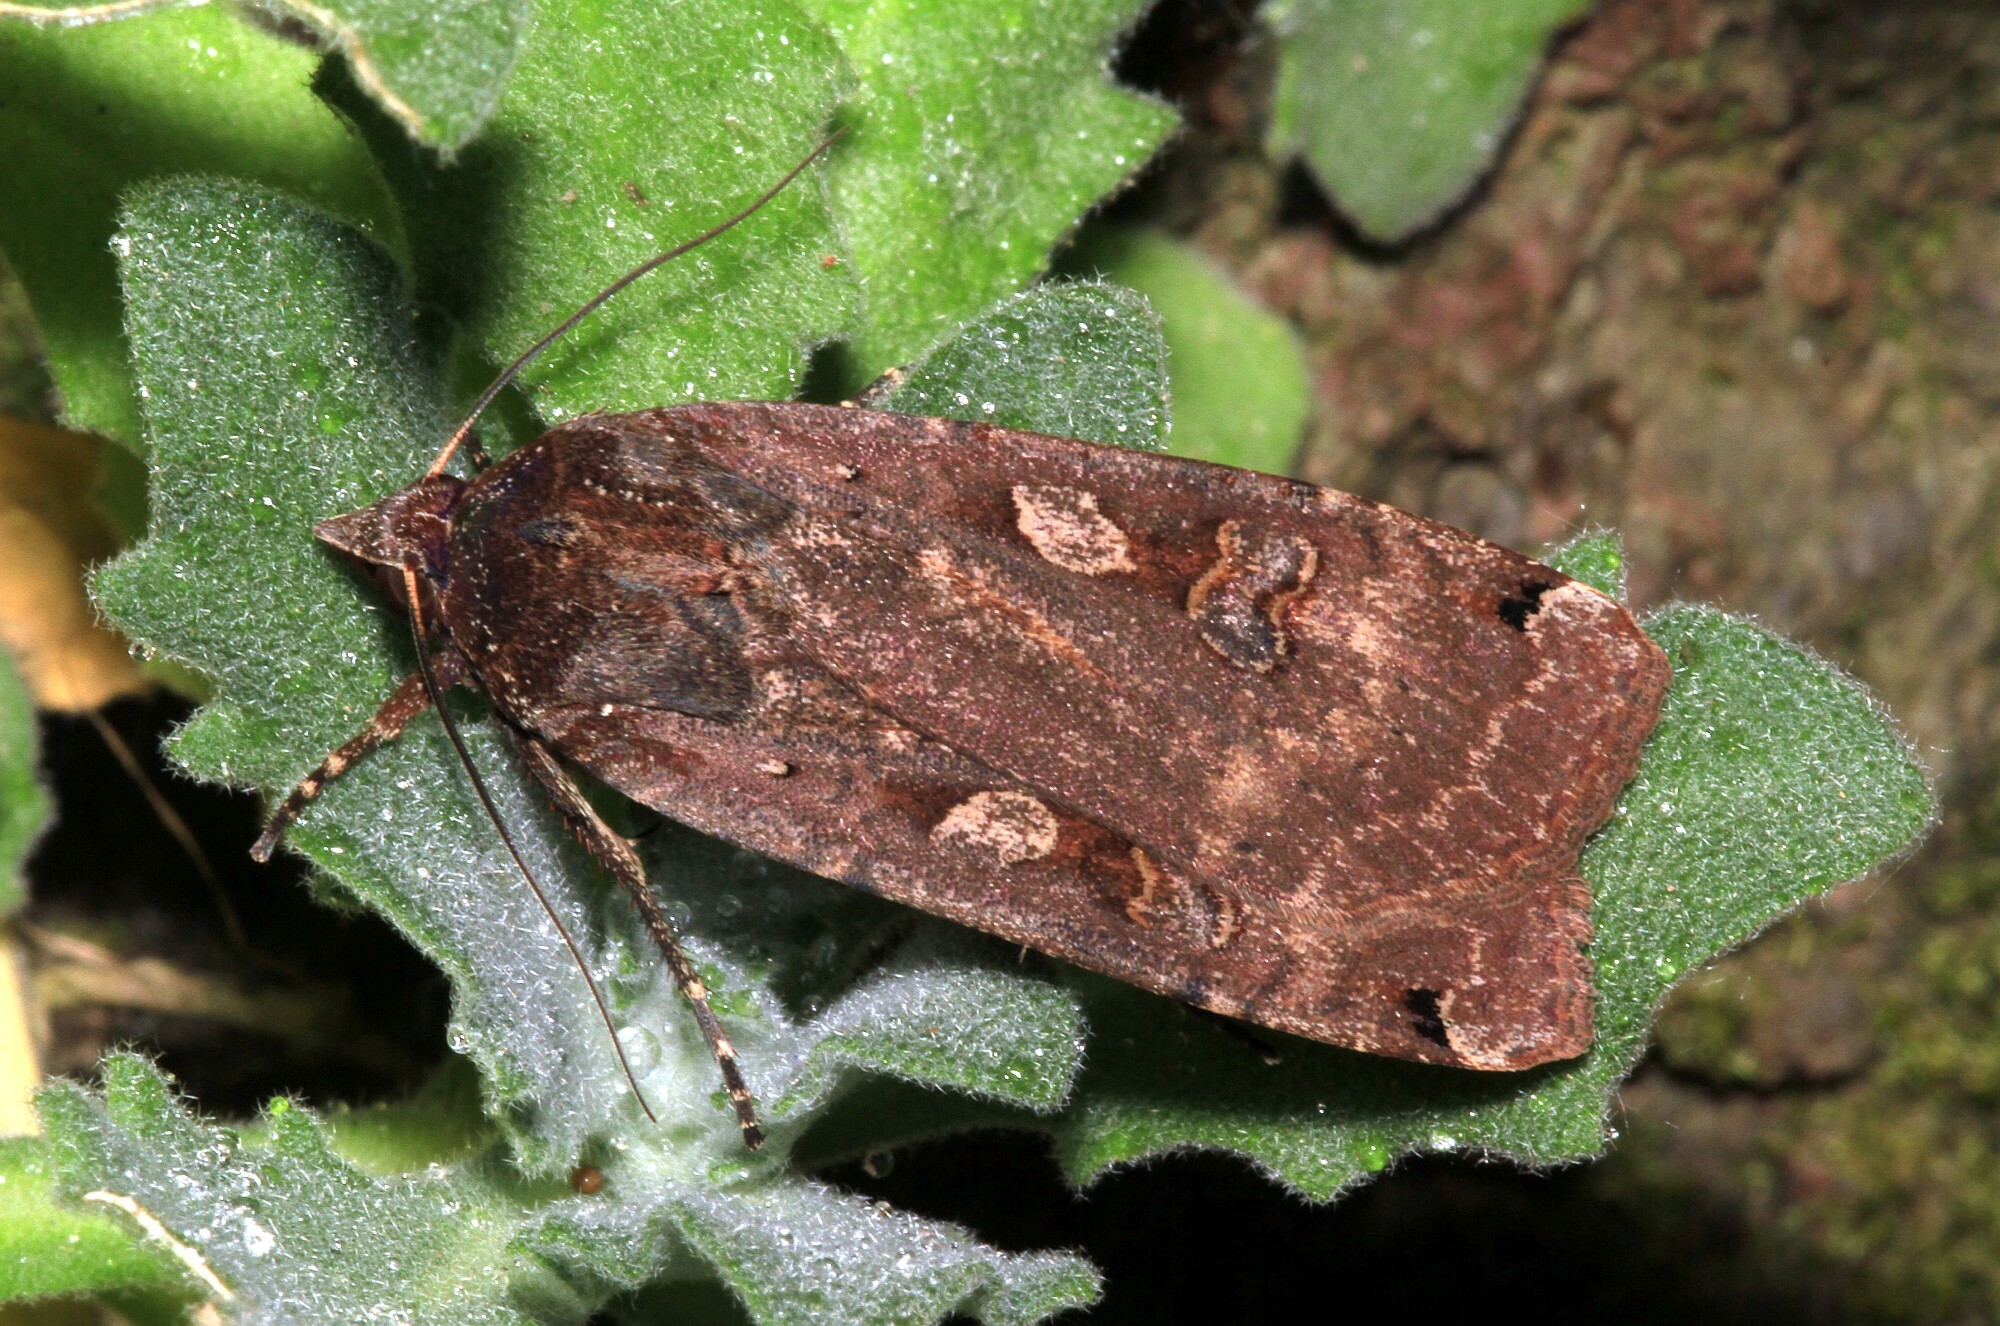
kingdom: Animalia
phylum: Arthropoda
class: Insecta
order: Lepidoptera
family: Noctuidae
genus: Noctua
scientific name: Noctua pronuba
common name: Large yellow underwing
